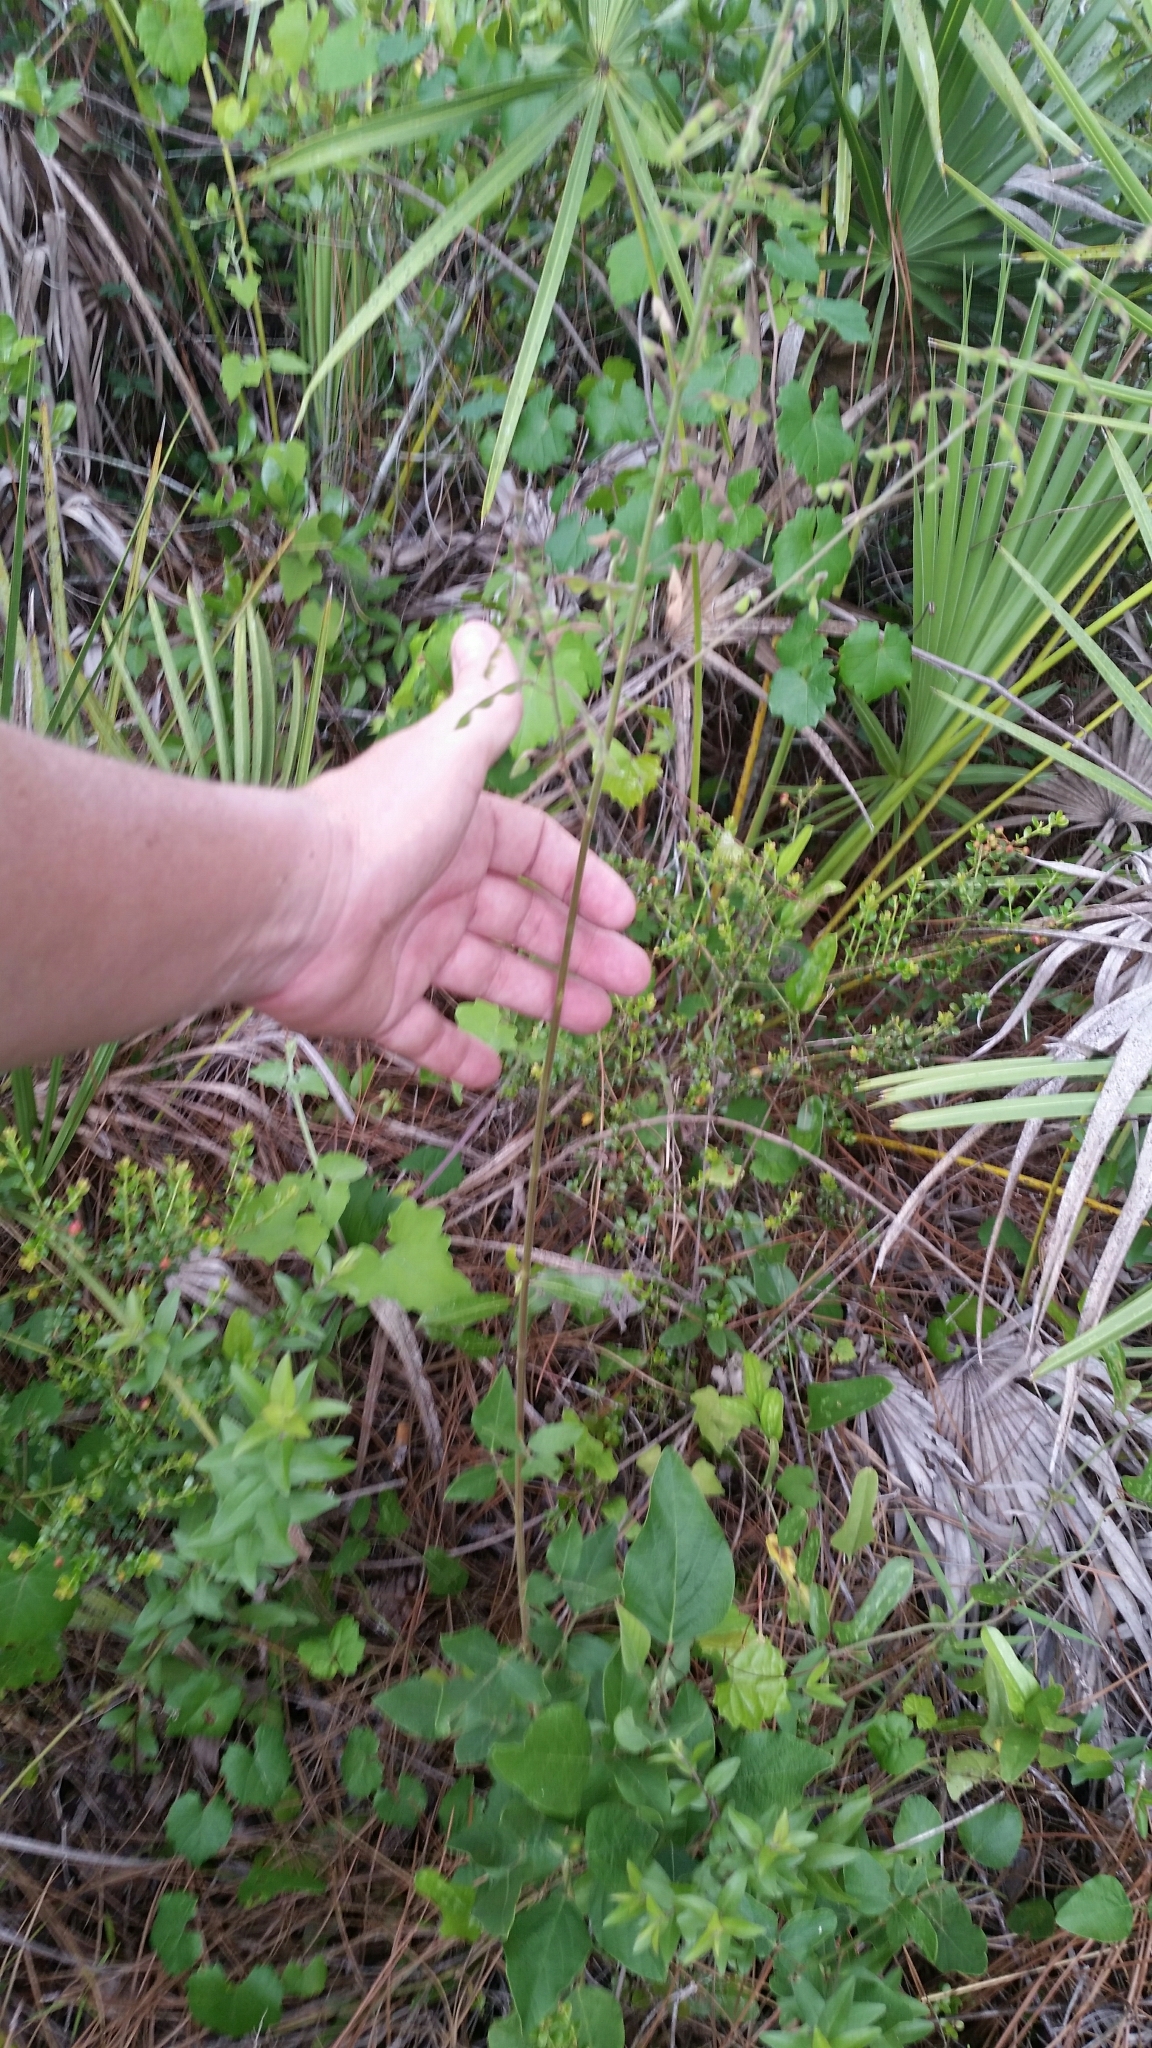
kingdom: Plantae
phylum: Tracheophyta
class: Magnoliopsida
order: Fabales
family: Fabaceae
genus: Desmodium
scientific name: Desmodium floridanum
